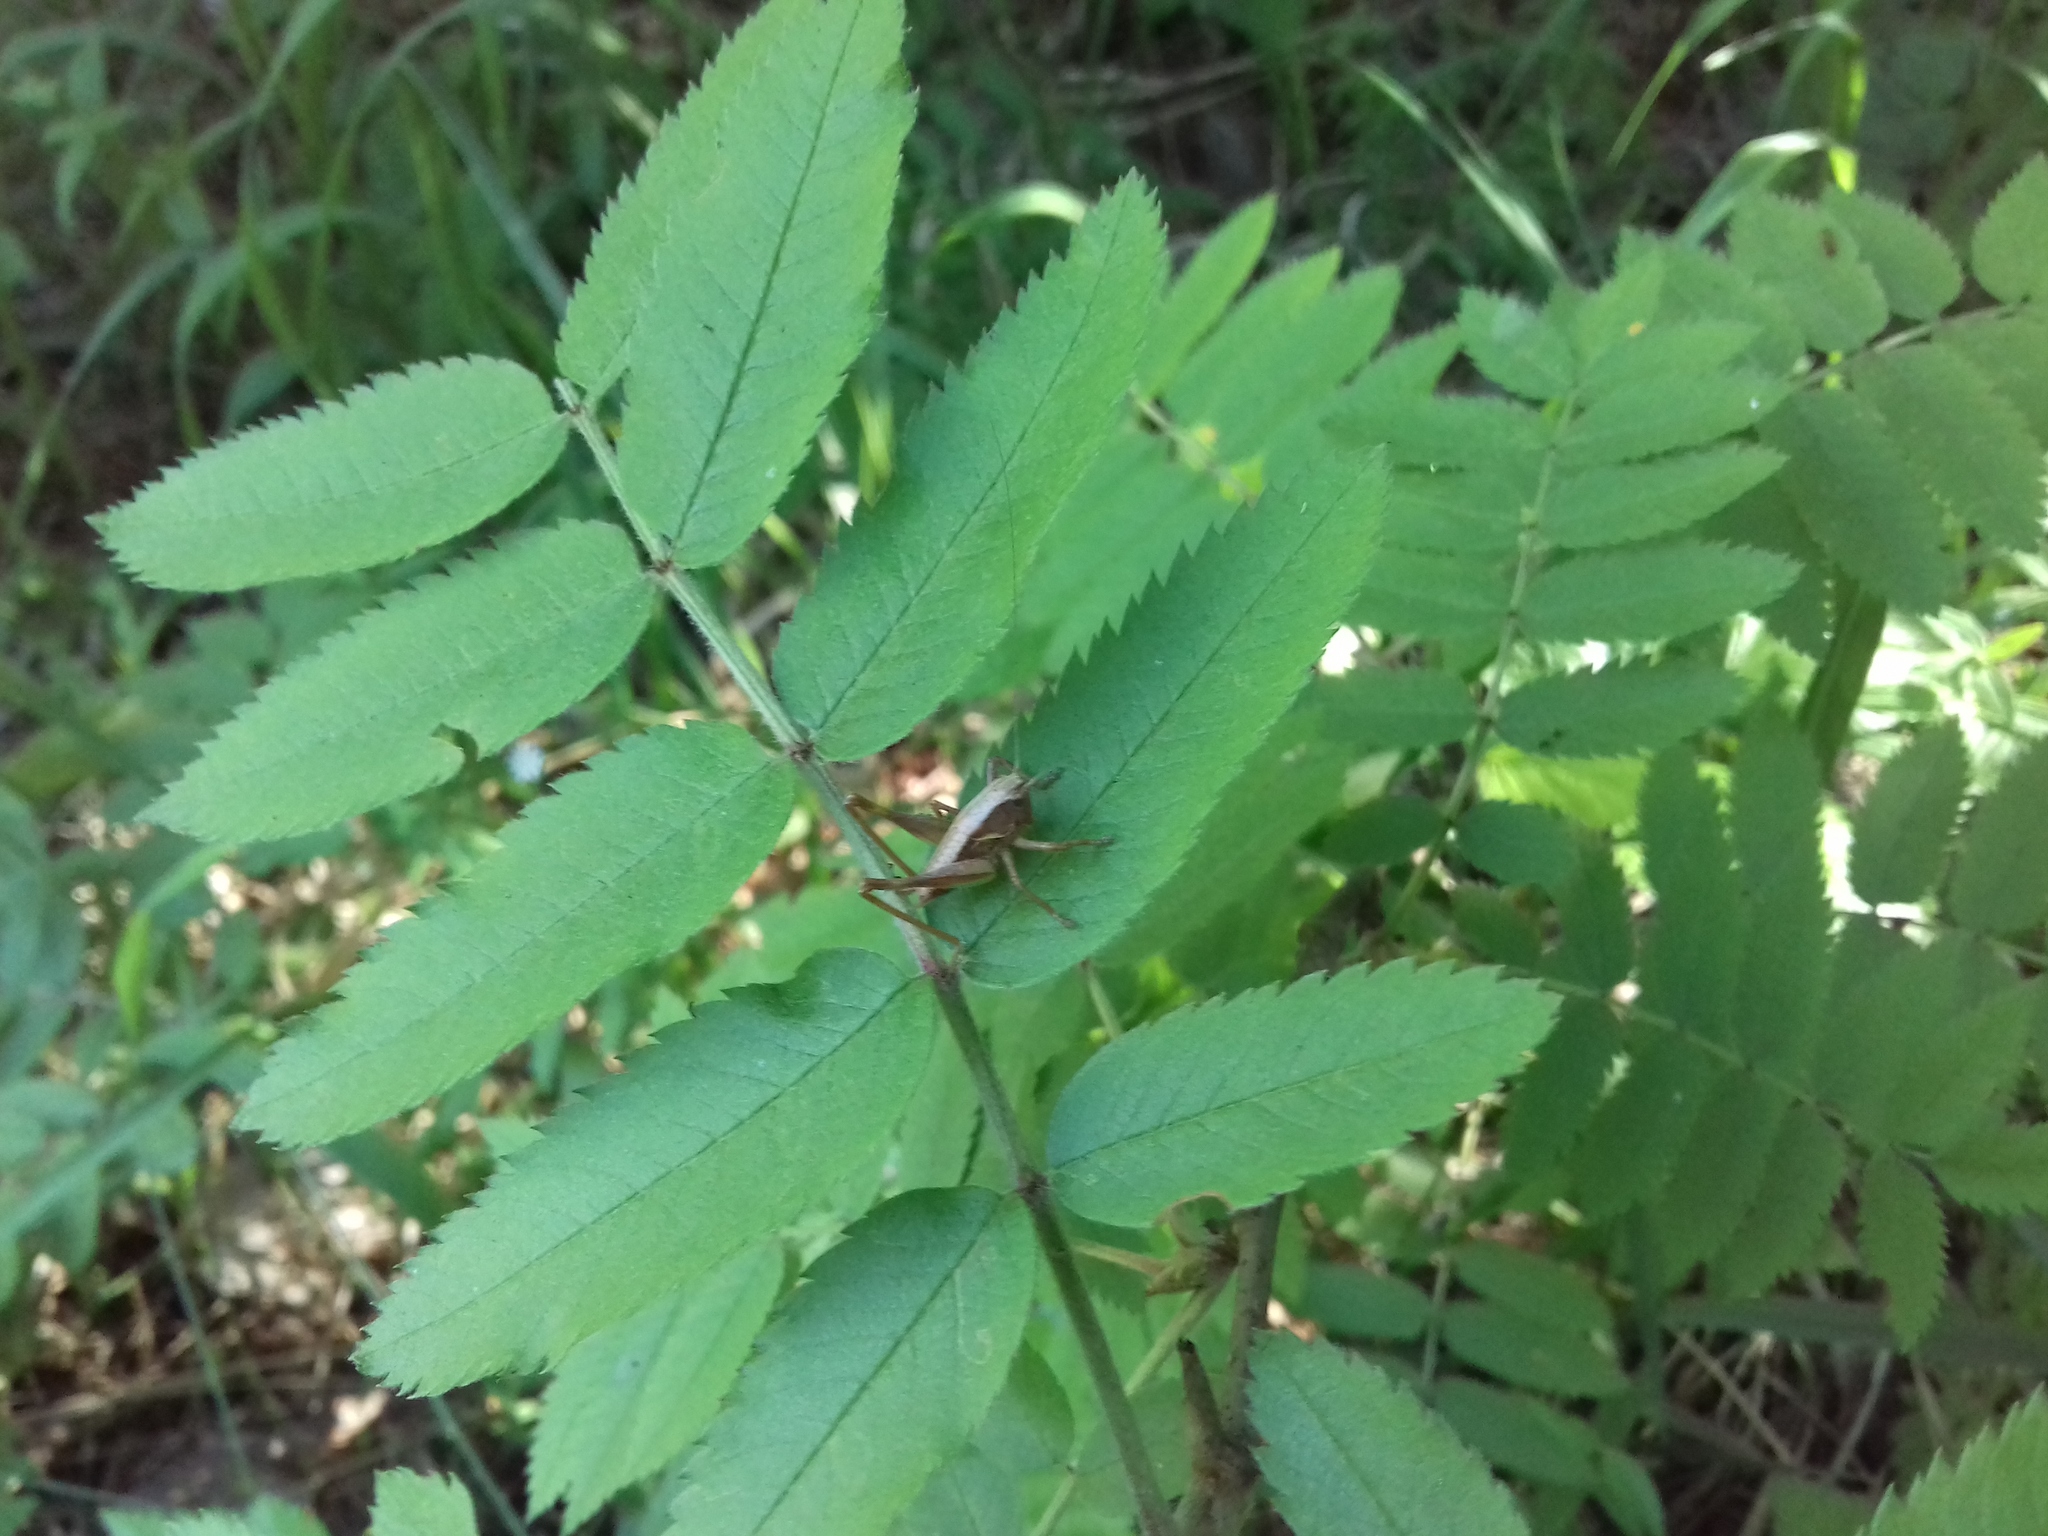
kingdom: Plantae
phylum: Tracheophyta
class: Magnoliopsida
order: Rosales
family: Rosaceae
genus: Sorbus
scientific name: Sorbus aucuparia
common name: Rowan
